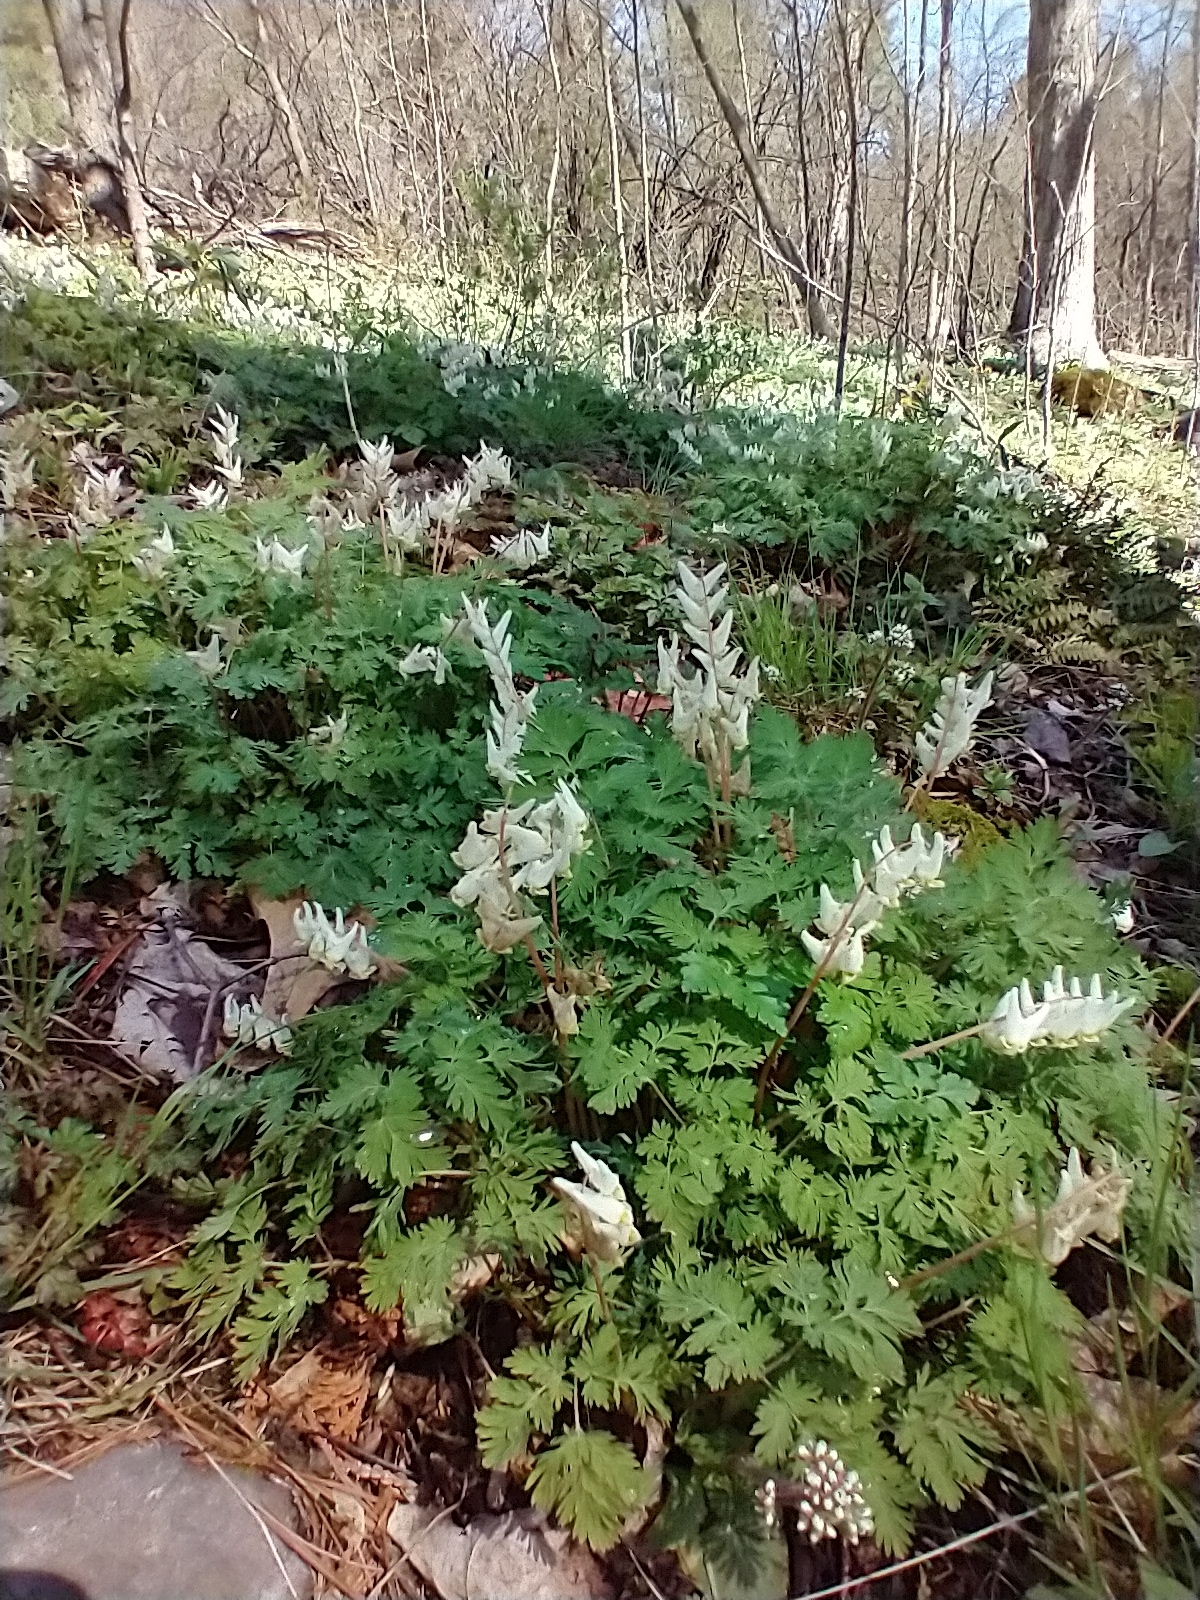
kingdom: Plantae
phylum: Tracheophyta
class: Magnoliopsida
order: Ranunculales
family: Papaveraceae
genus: Dicentra
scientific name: Dicentra cucullaria
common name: Dutchman's breeches
